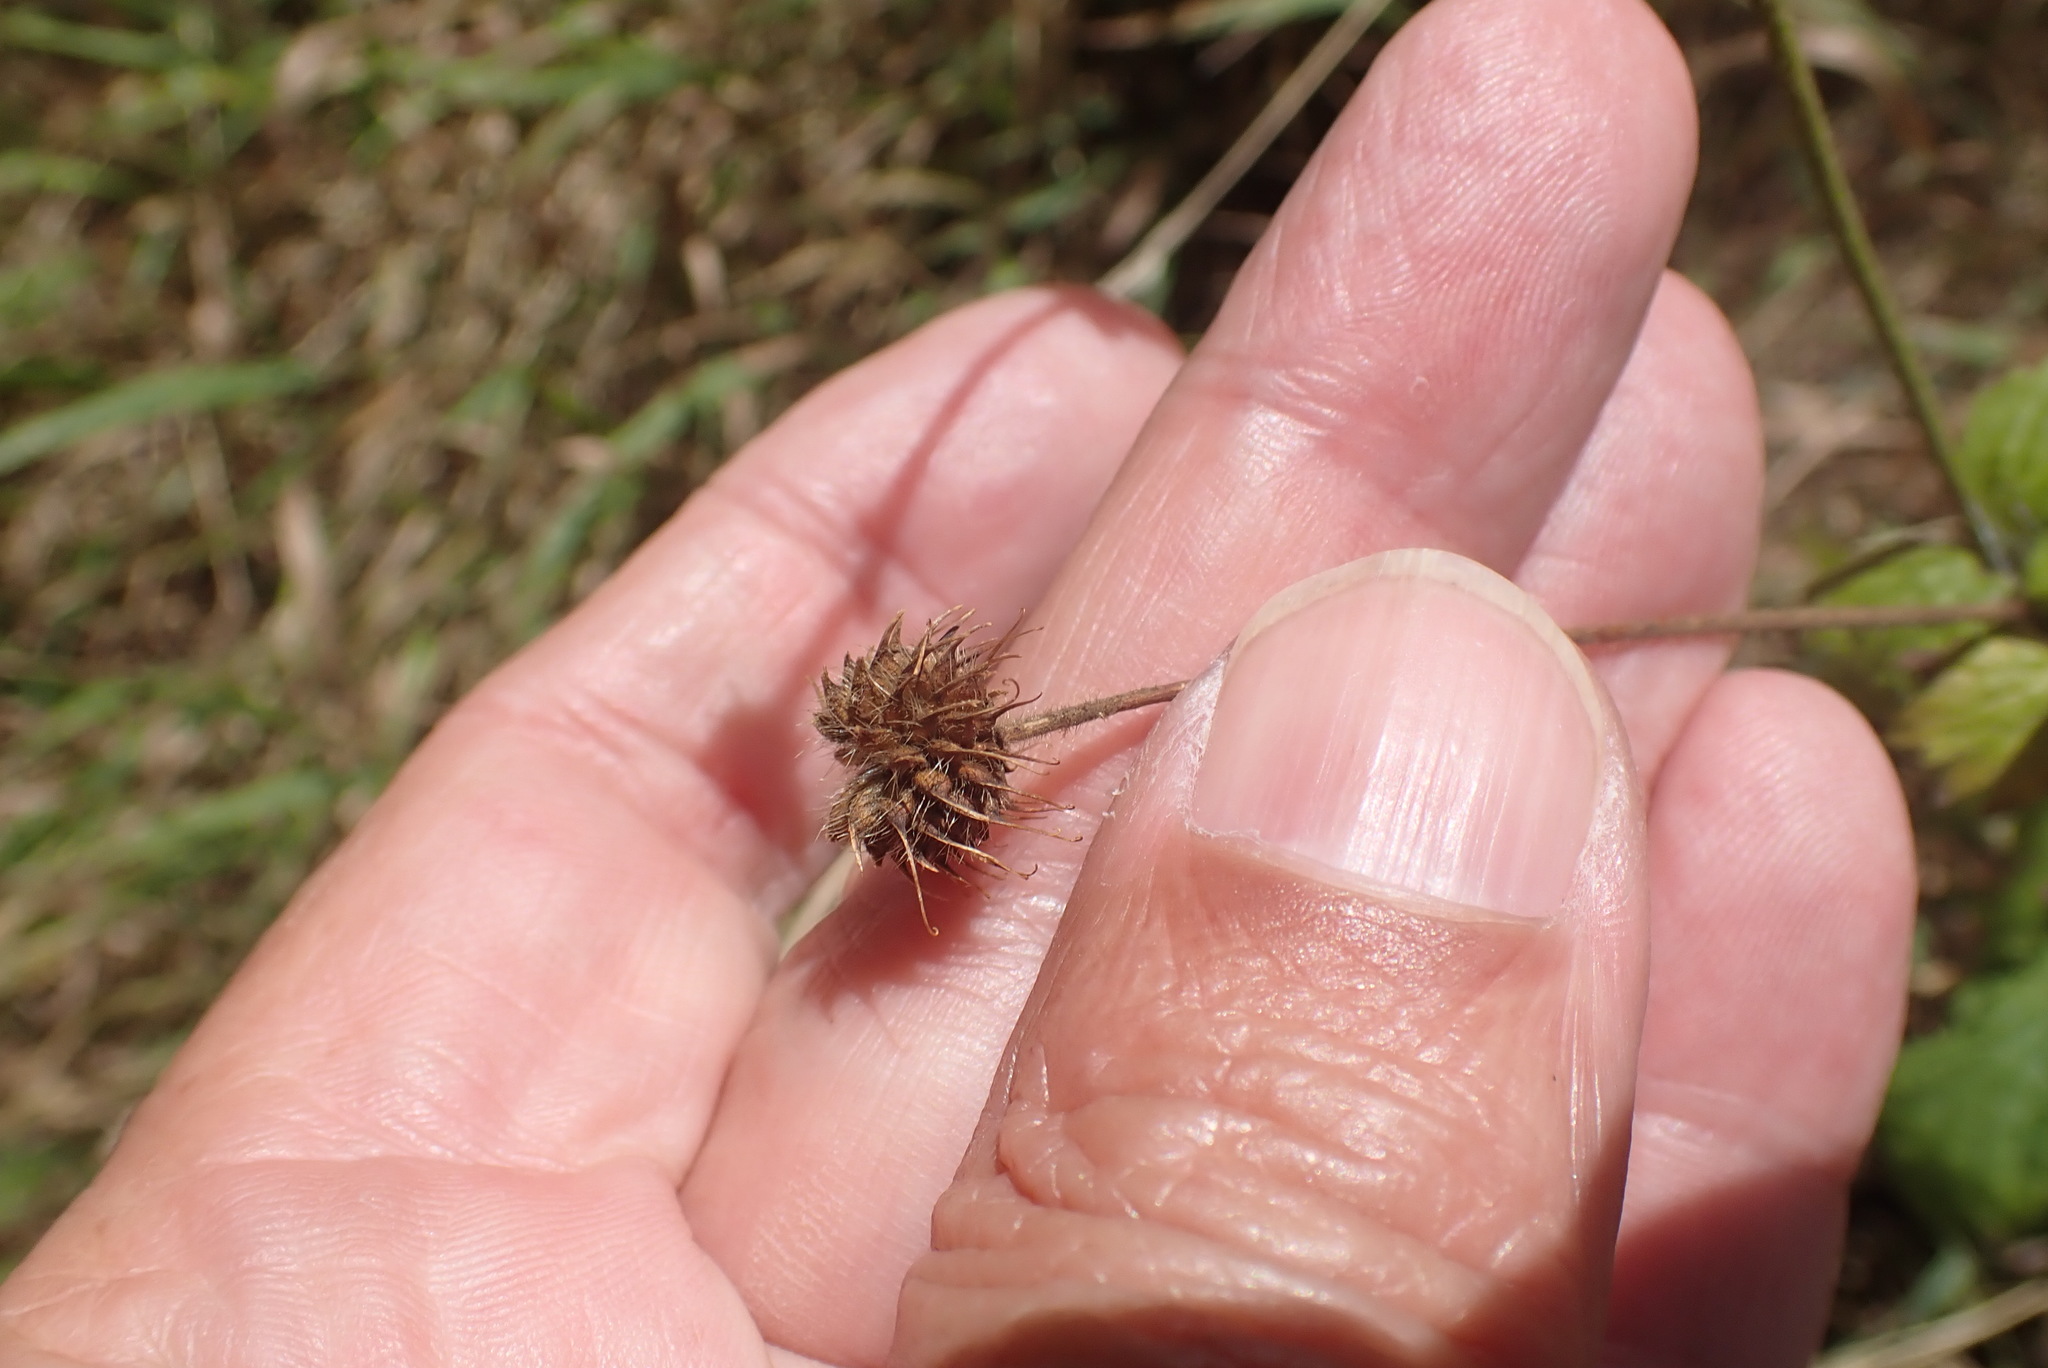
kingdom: Plantae
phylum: Tracheophyta
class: Magnoliopsida
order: Rosales
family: Rosaceae
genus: Geum
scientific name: Geum urbanum
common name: Wood avens
